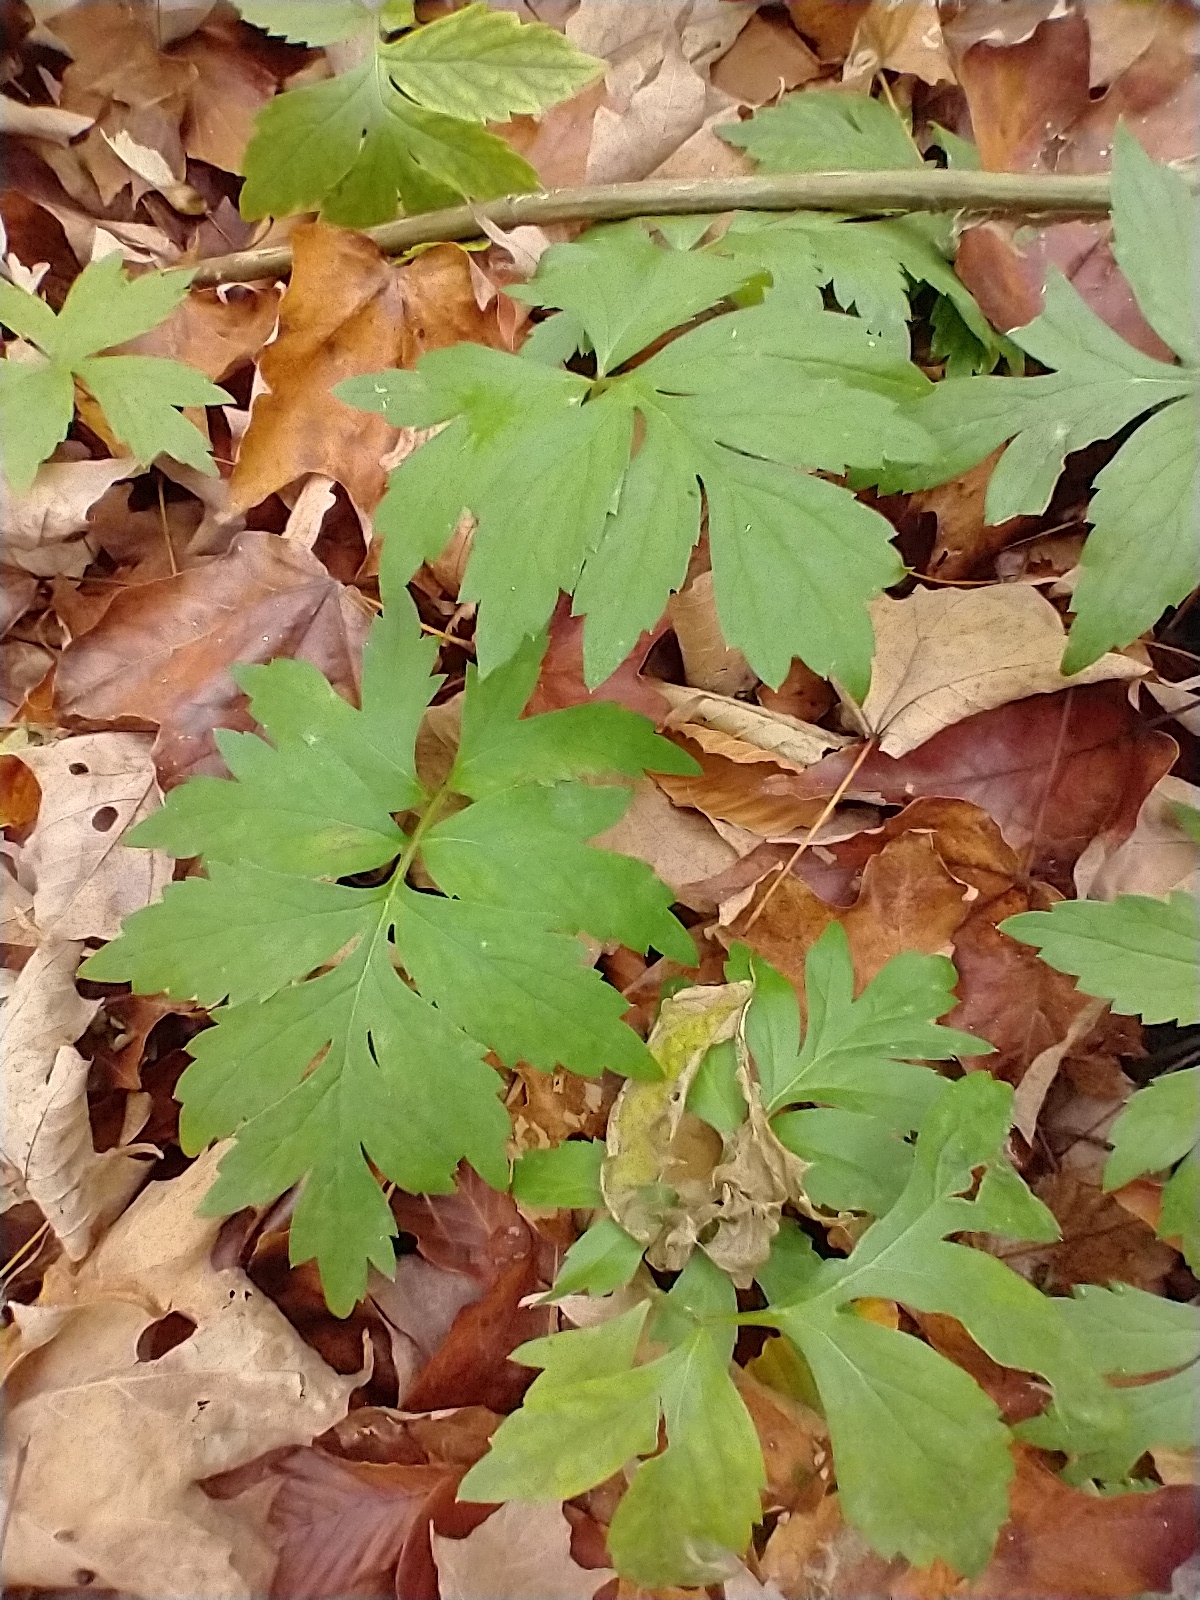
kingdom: Plantae
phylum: Tracheophyta
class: Magnoliopsida
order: Boraginales
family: Hydrophyllaceae
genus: Hydrophyllum
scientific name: Hydrophyllum virginianum
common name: Virginia waterleaf
